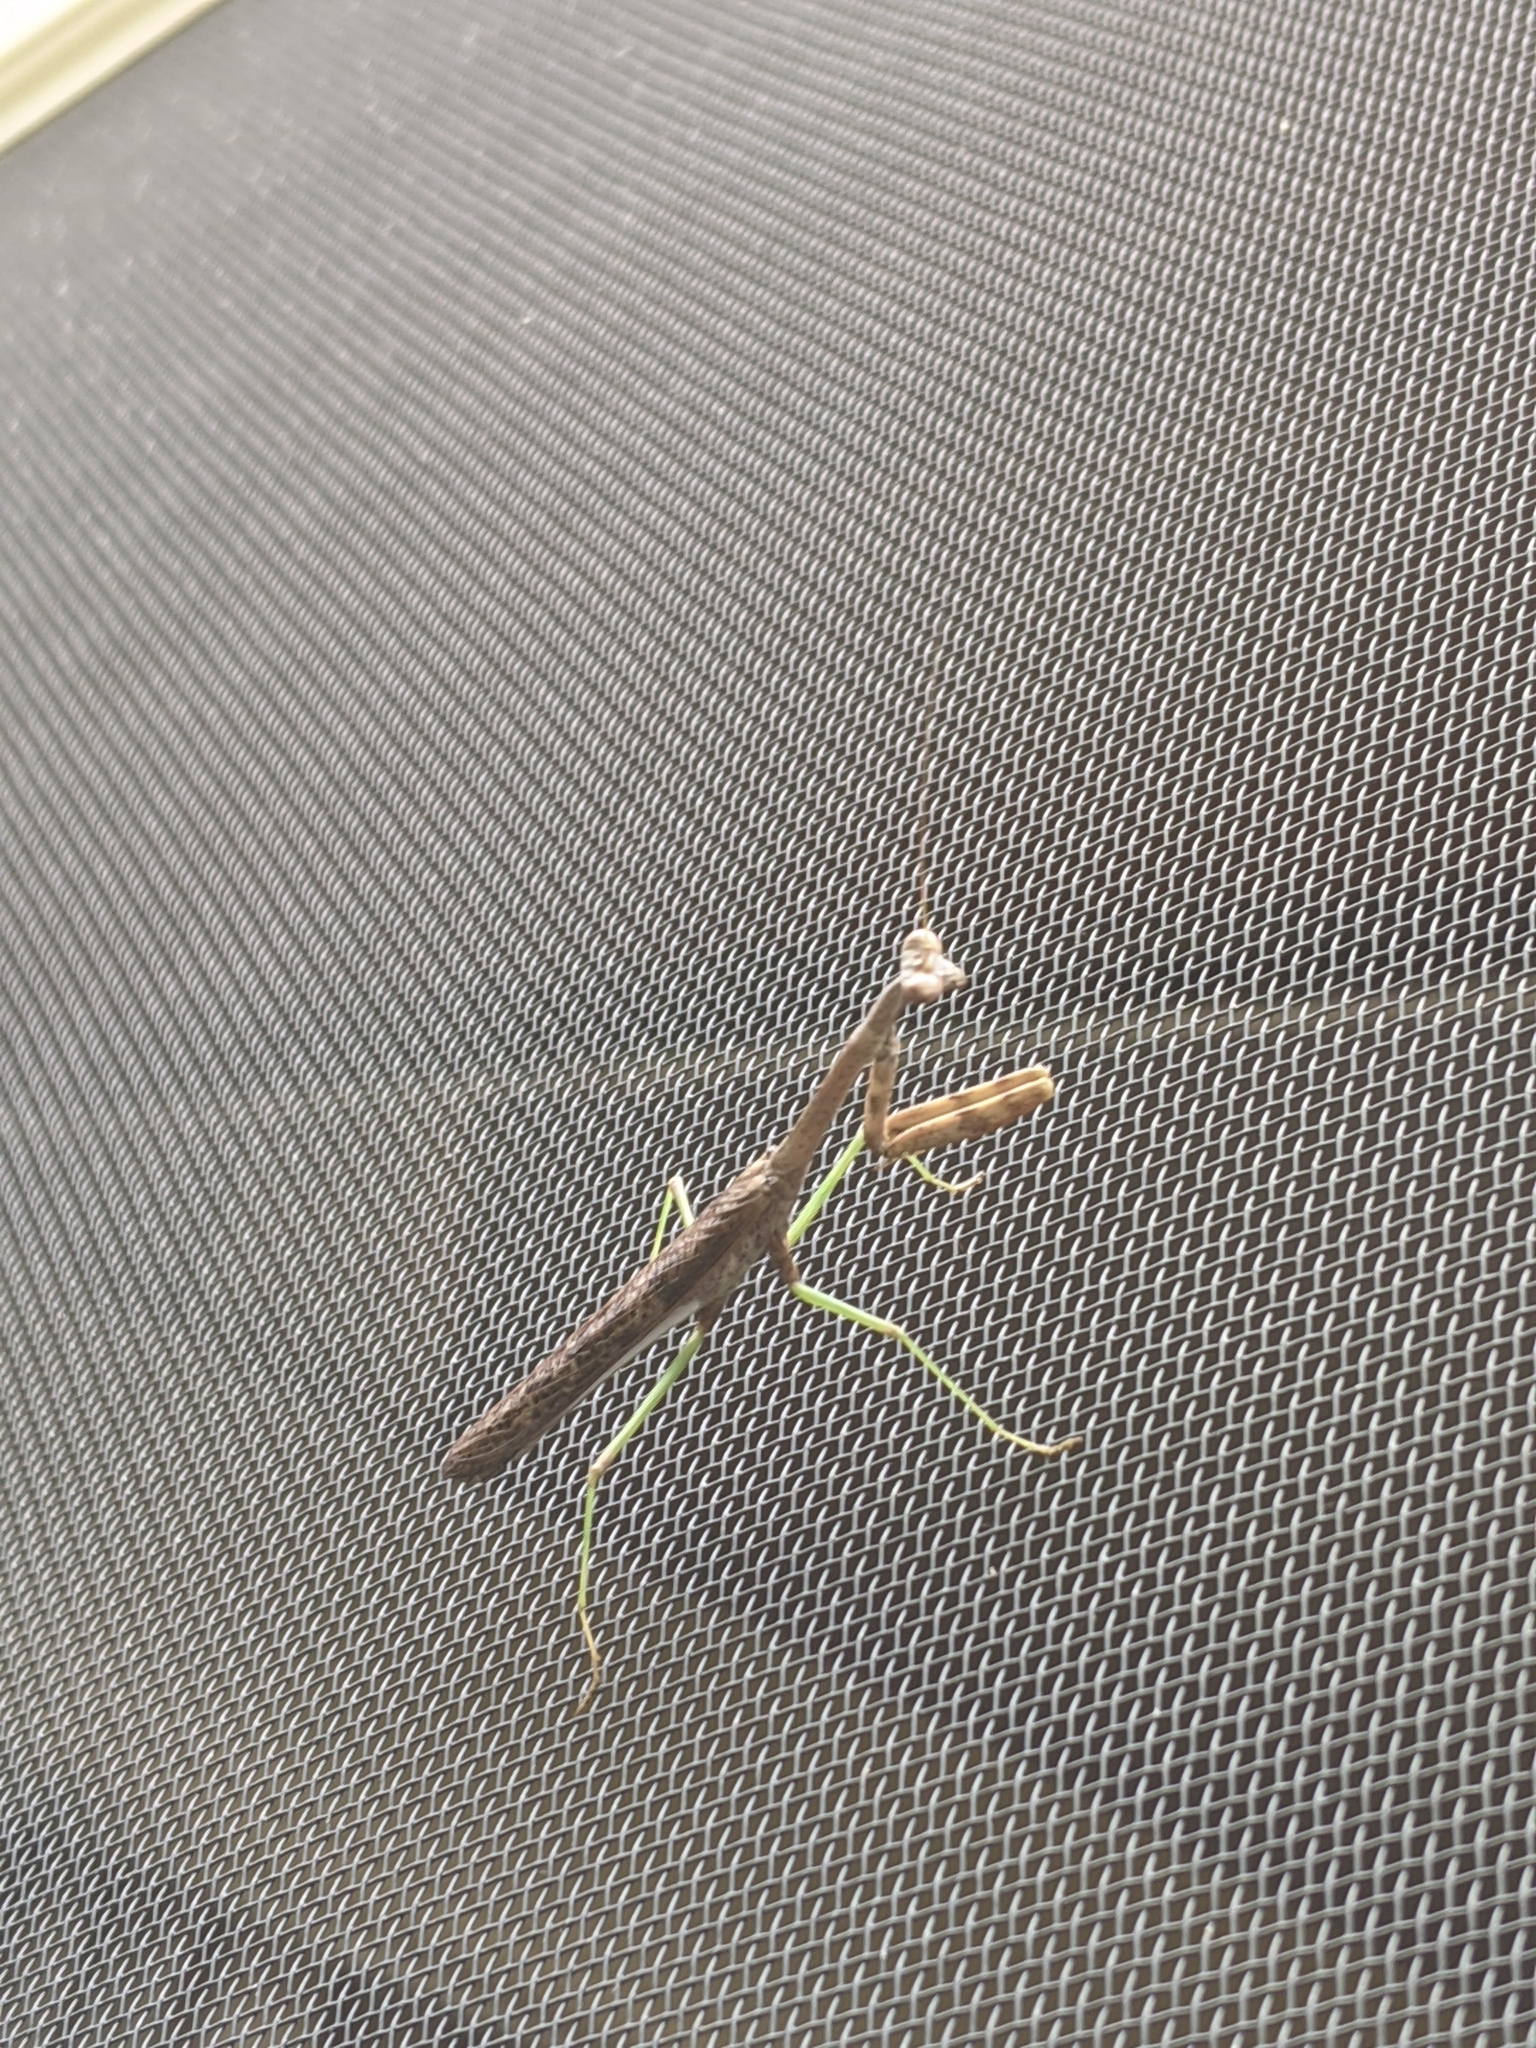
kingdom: Animalia
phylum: Arthropoda
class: Insecta
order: Mantodea
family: Mantidae
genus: Stagmomantis
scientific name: Stagmomantis carolina
